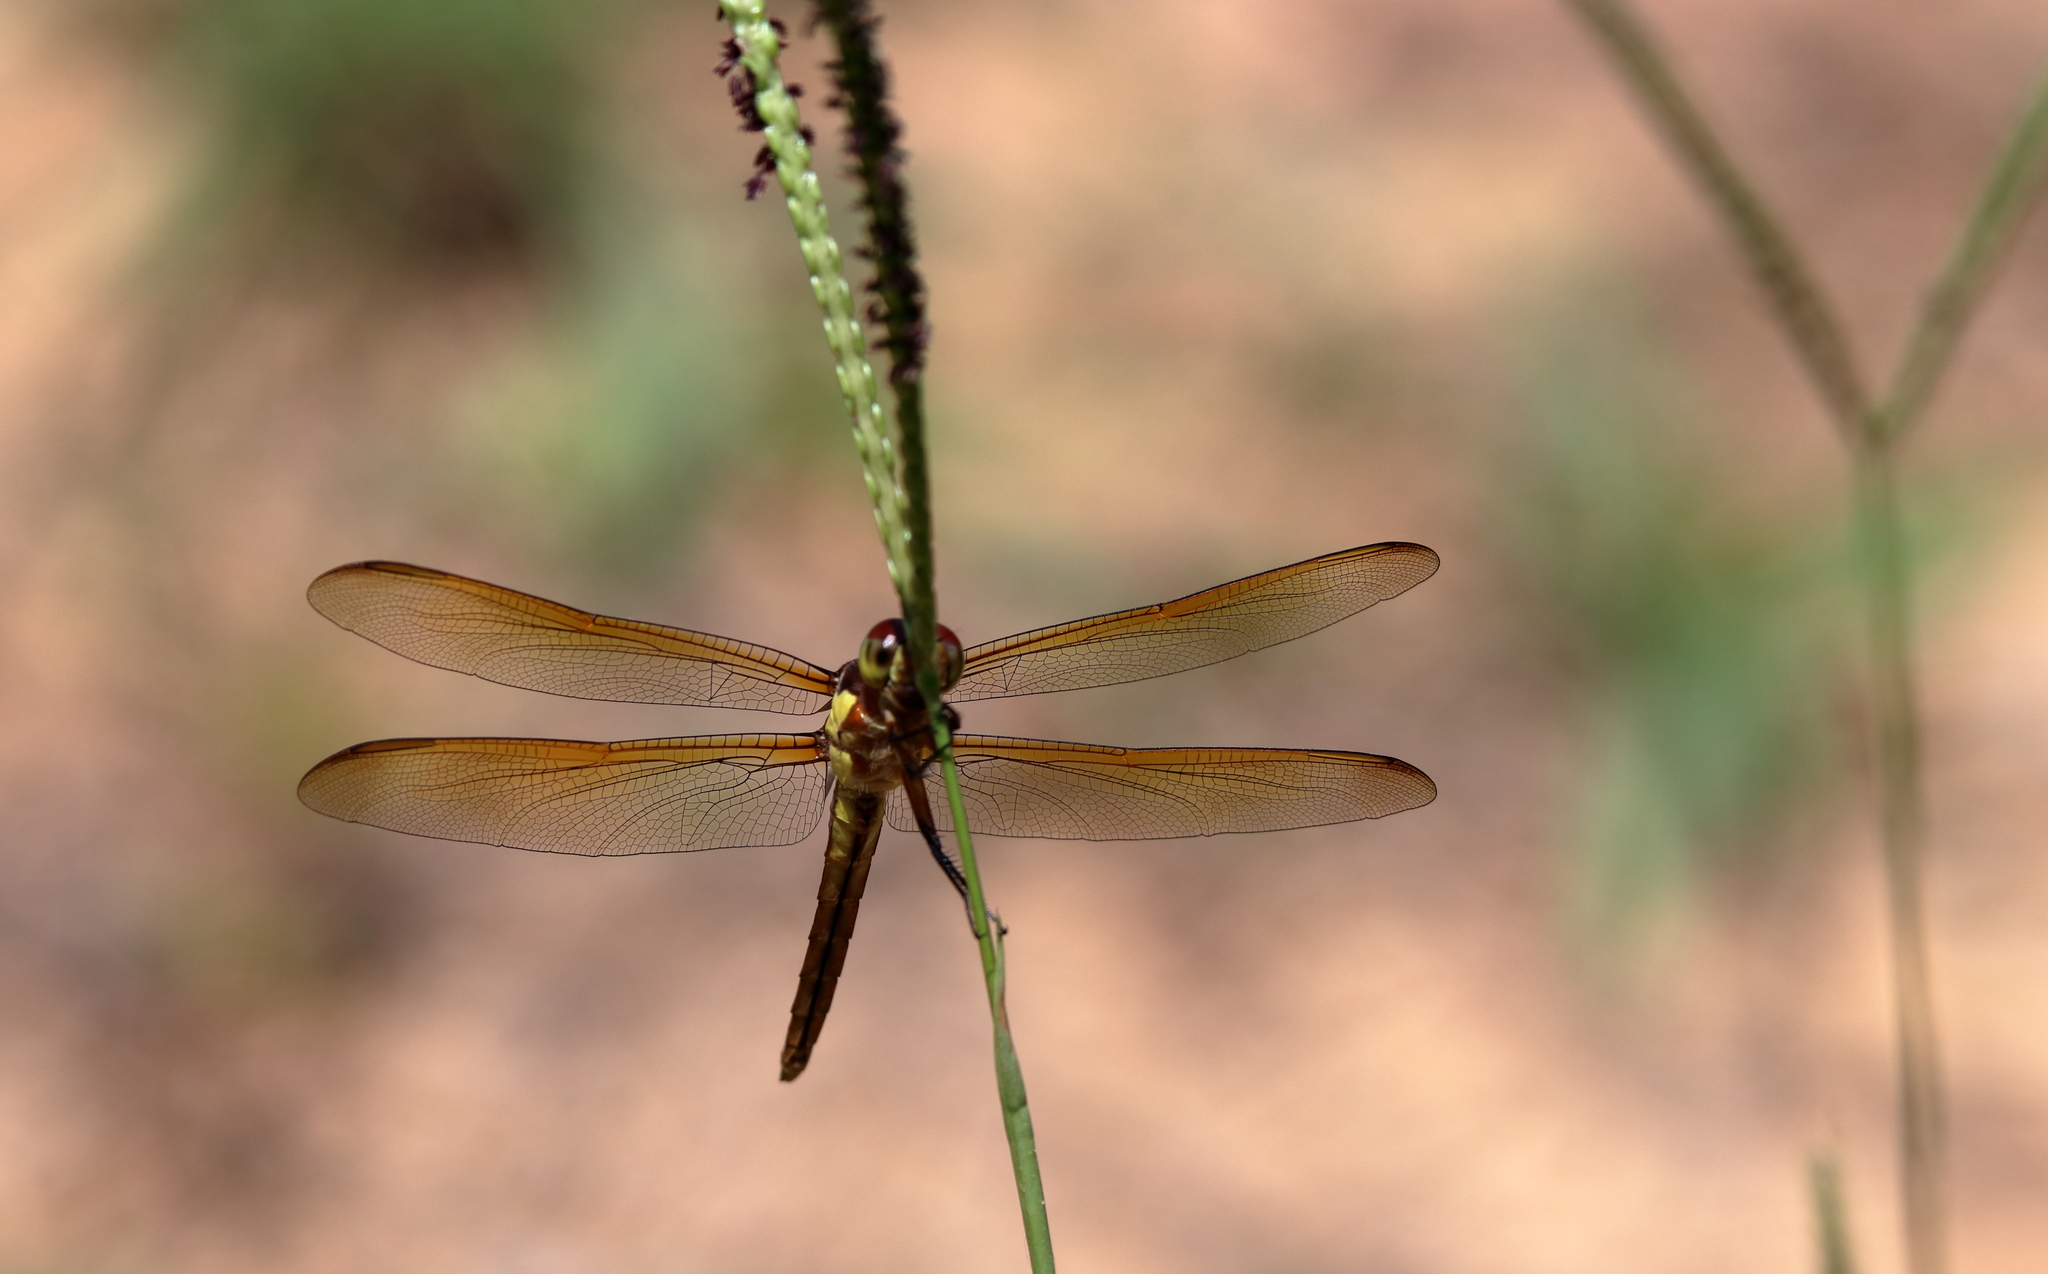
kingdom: Animalia
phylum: Arthropoda
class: Insecta
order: Odonata
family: Libellulidae
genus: Libellula
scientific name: Libellula flavida
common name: Yellow-sided skimmer
